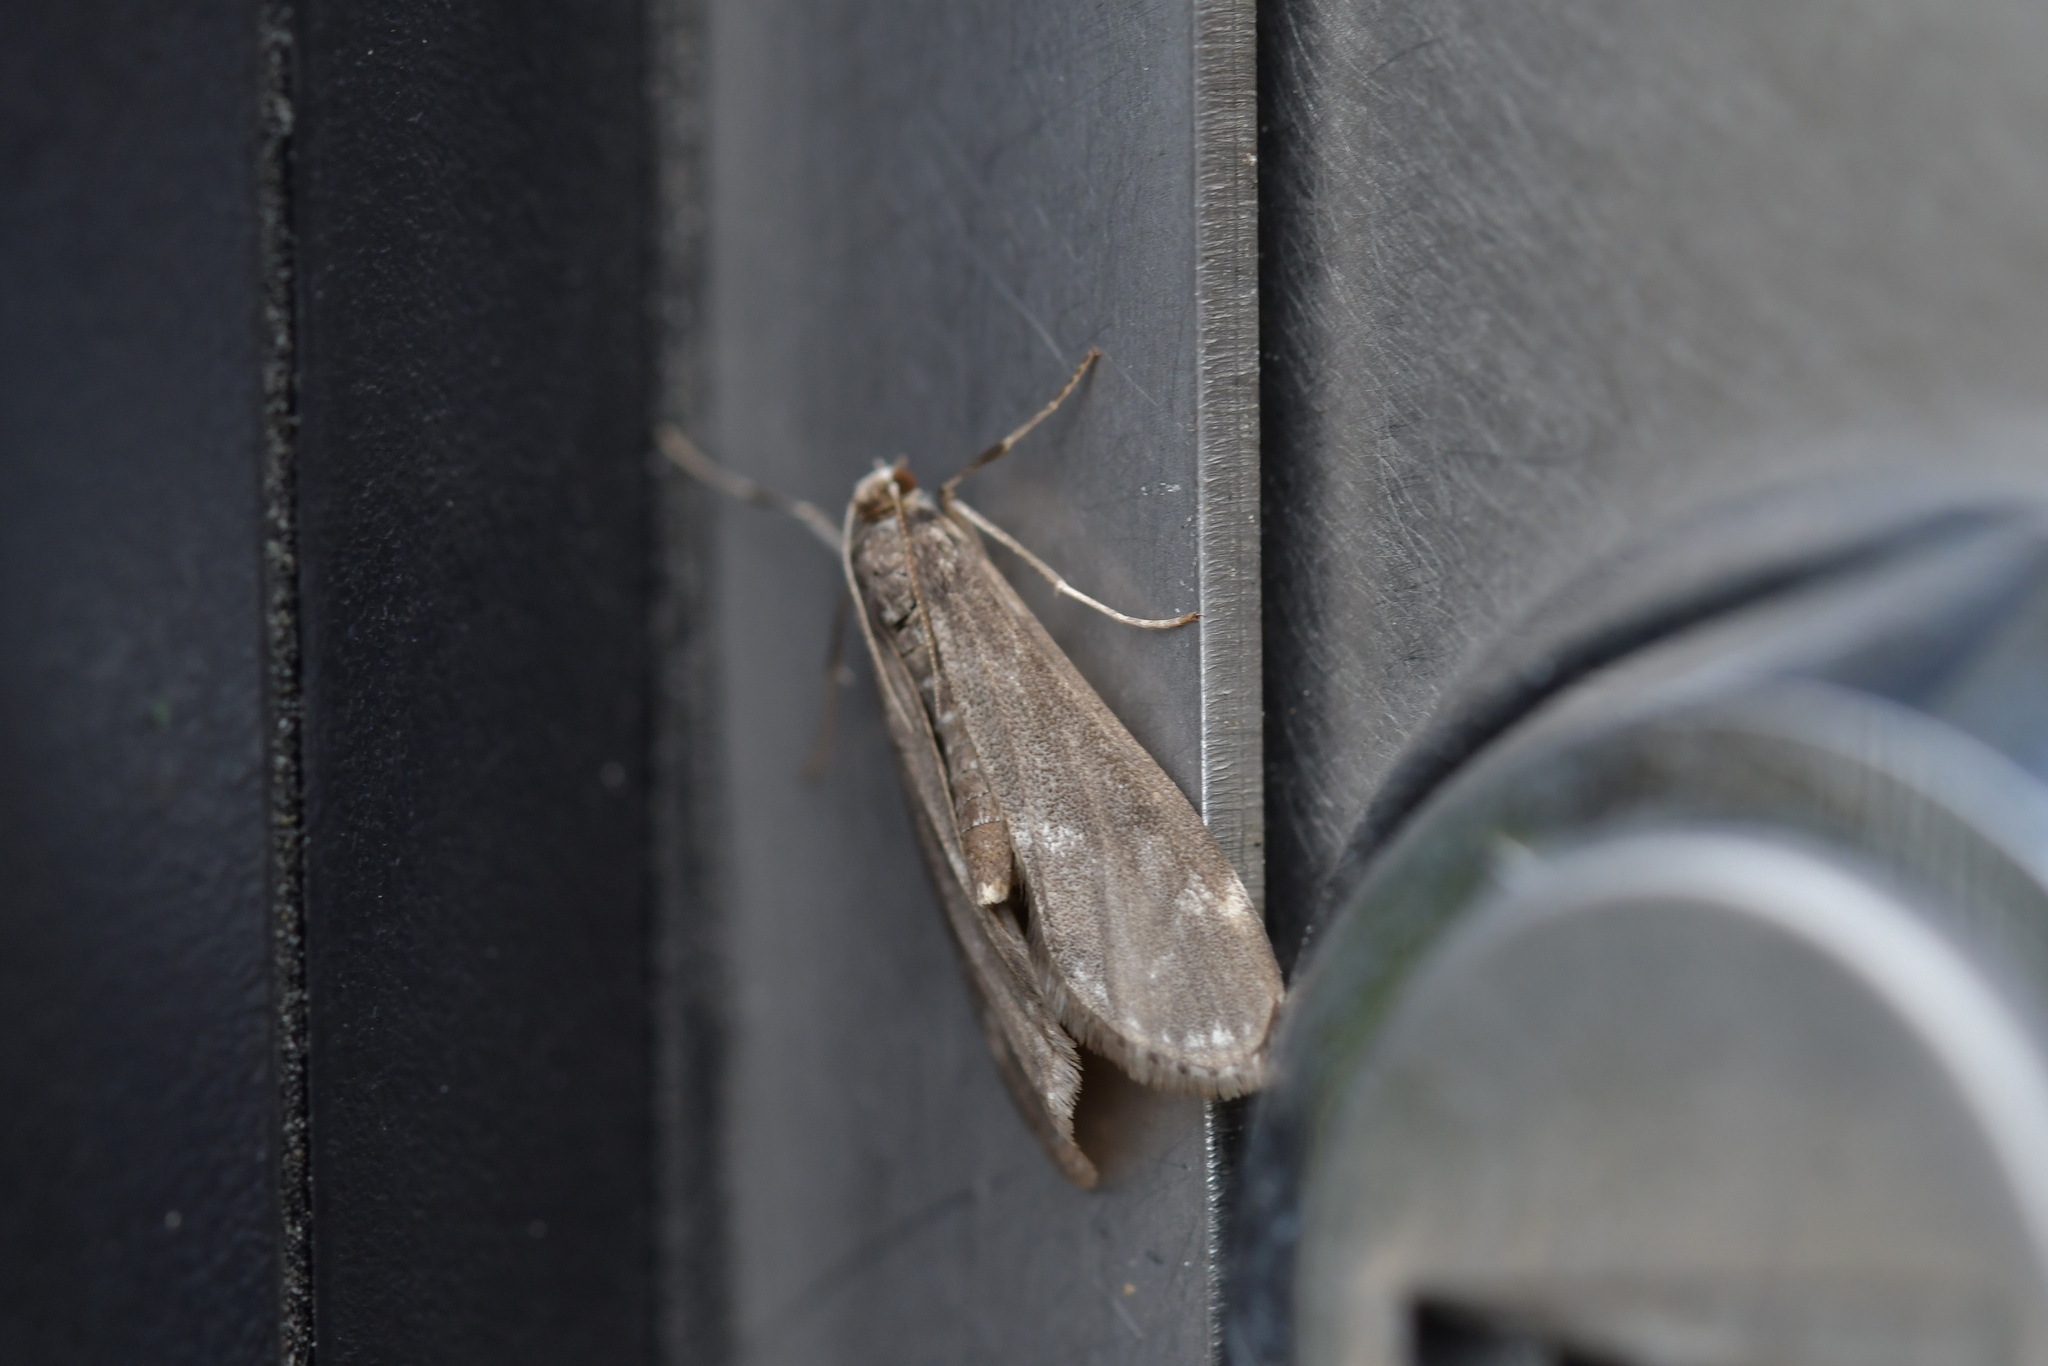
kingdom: Animalia
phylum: Arthropoda
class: Insecta
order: Lepidoptera
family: Crambidae
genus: Hygraula
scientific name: Hygraula nitens
